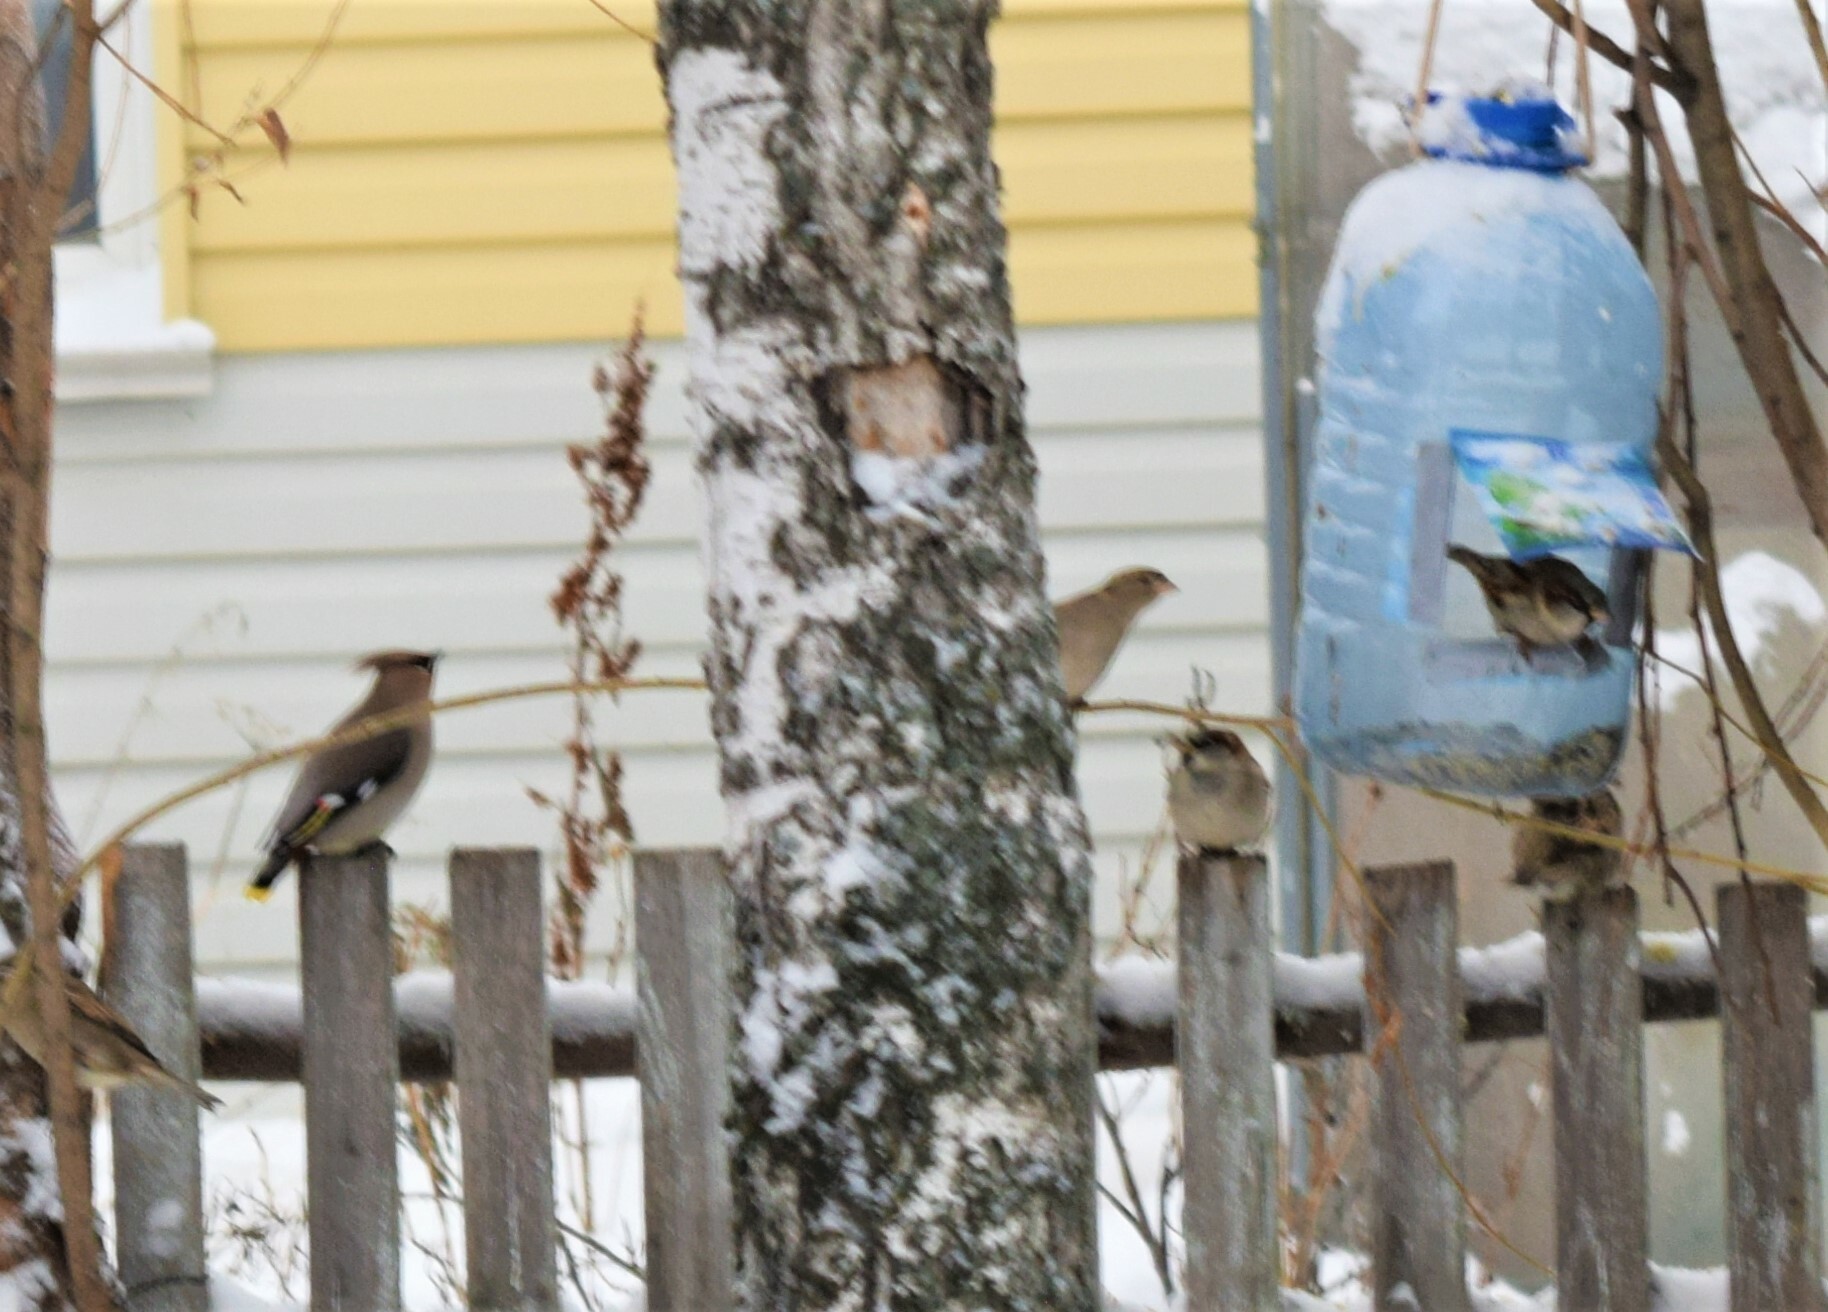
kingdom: Animalia
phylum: Chordata
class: Aves
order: Passeriformes
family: Bombycillidae
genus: Bombycilla
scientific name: Bombycilla garrulus
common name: Bohemian waxwing
